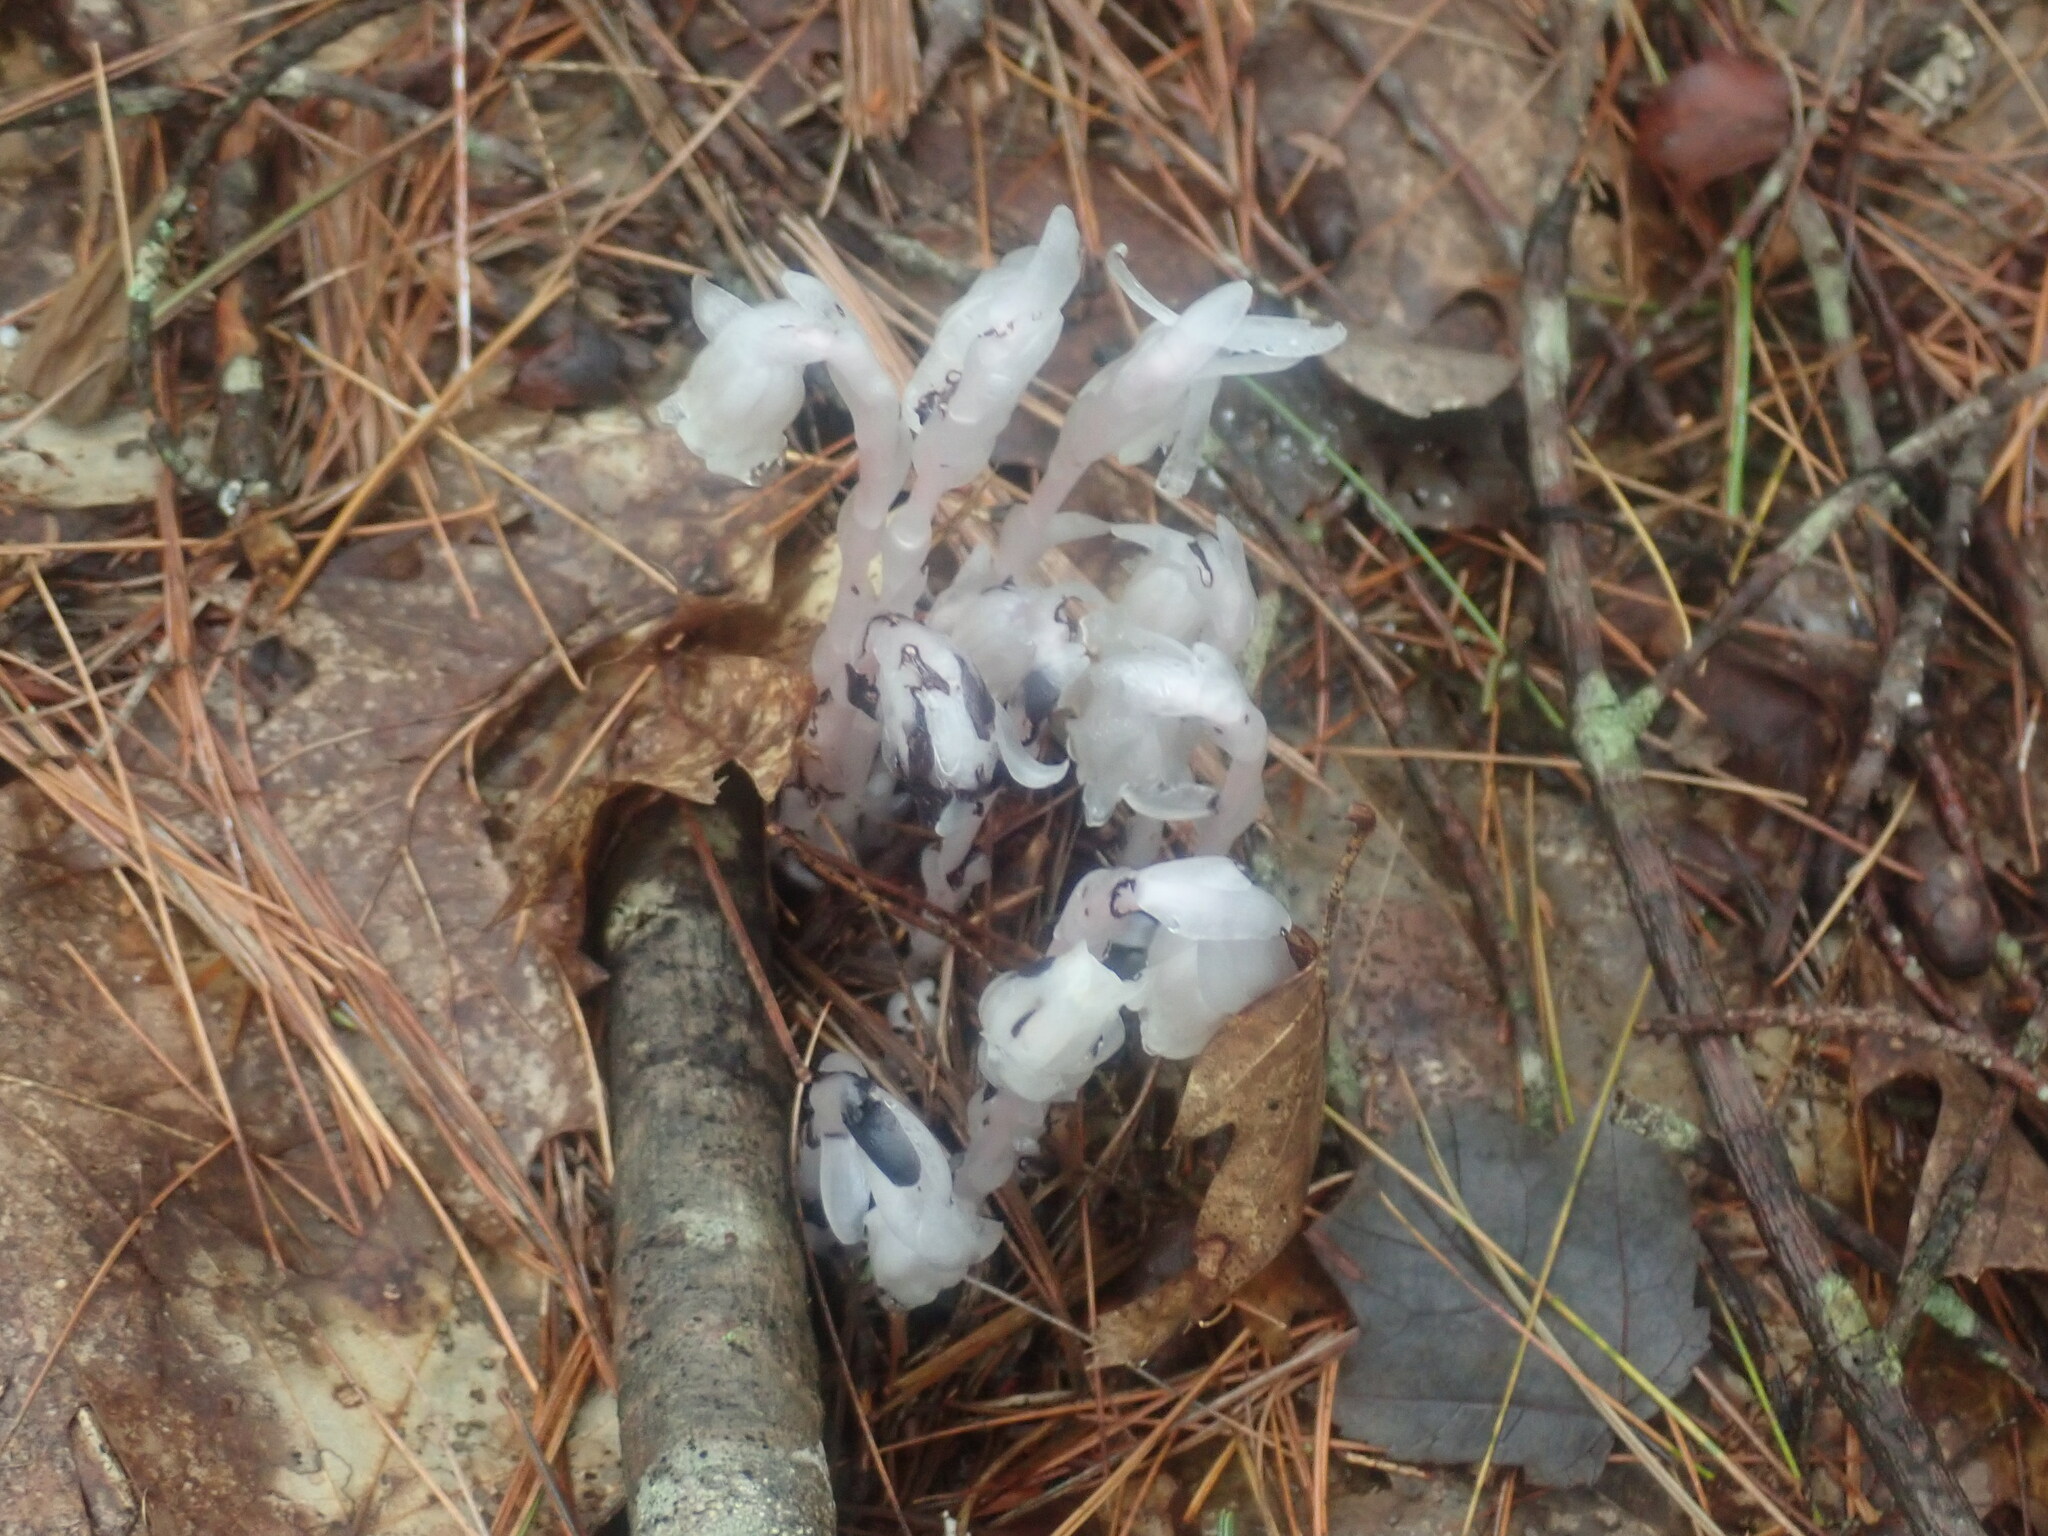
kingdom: Plantae
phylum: Tracheophyta
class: Magnoliopsida
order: Ericales
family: Ericaceae
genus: Monotropa
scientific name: Monotropa uniflora
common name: Convulsion root
